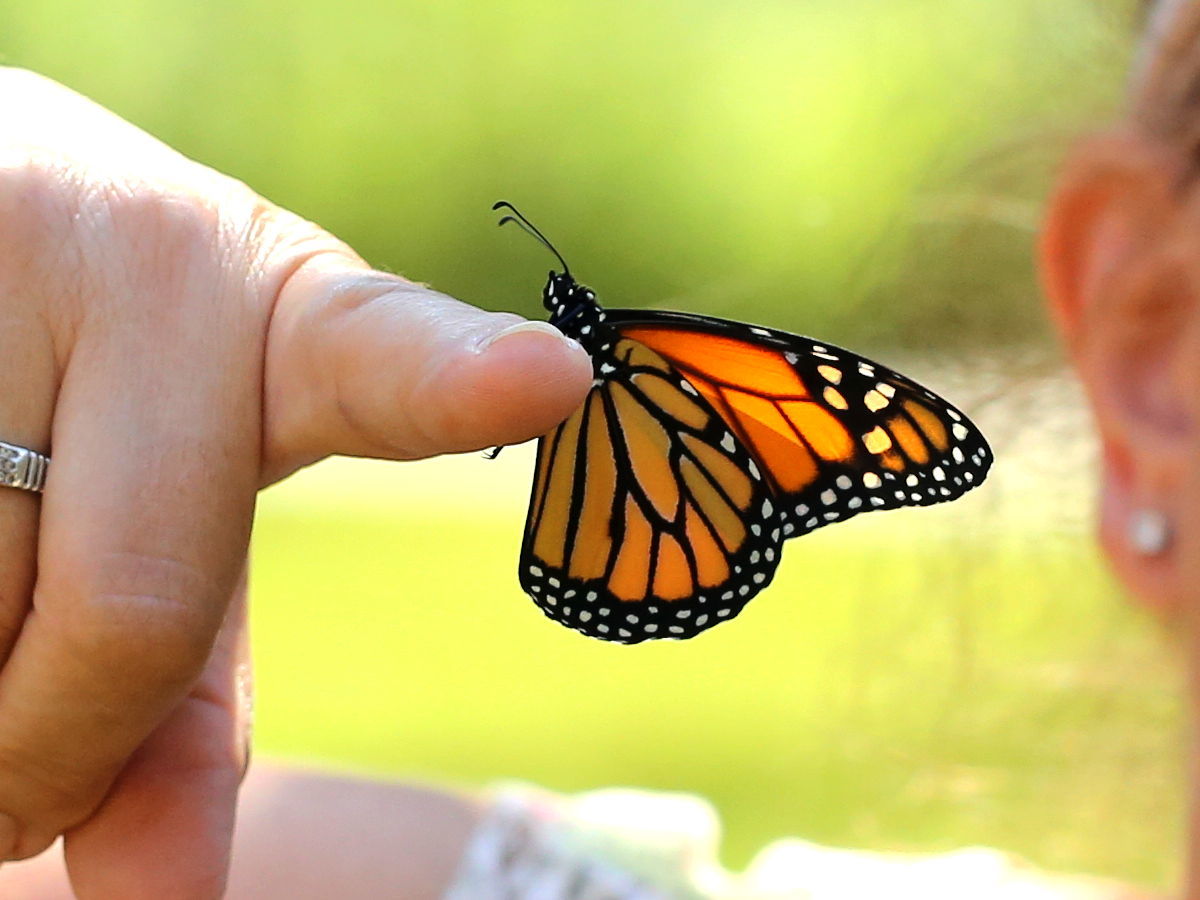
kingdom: Animalia
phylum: Arthropoda
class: Insecta
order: Lepidoptera
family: Nymphalidae
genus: Danaus
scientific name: Danaus plexippus
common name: Monarch
